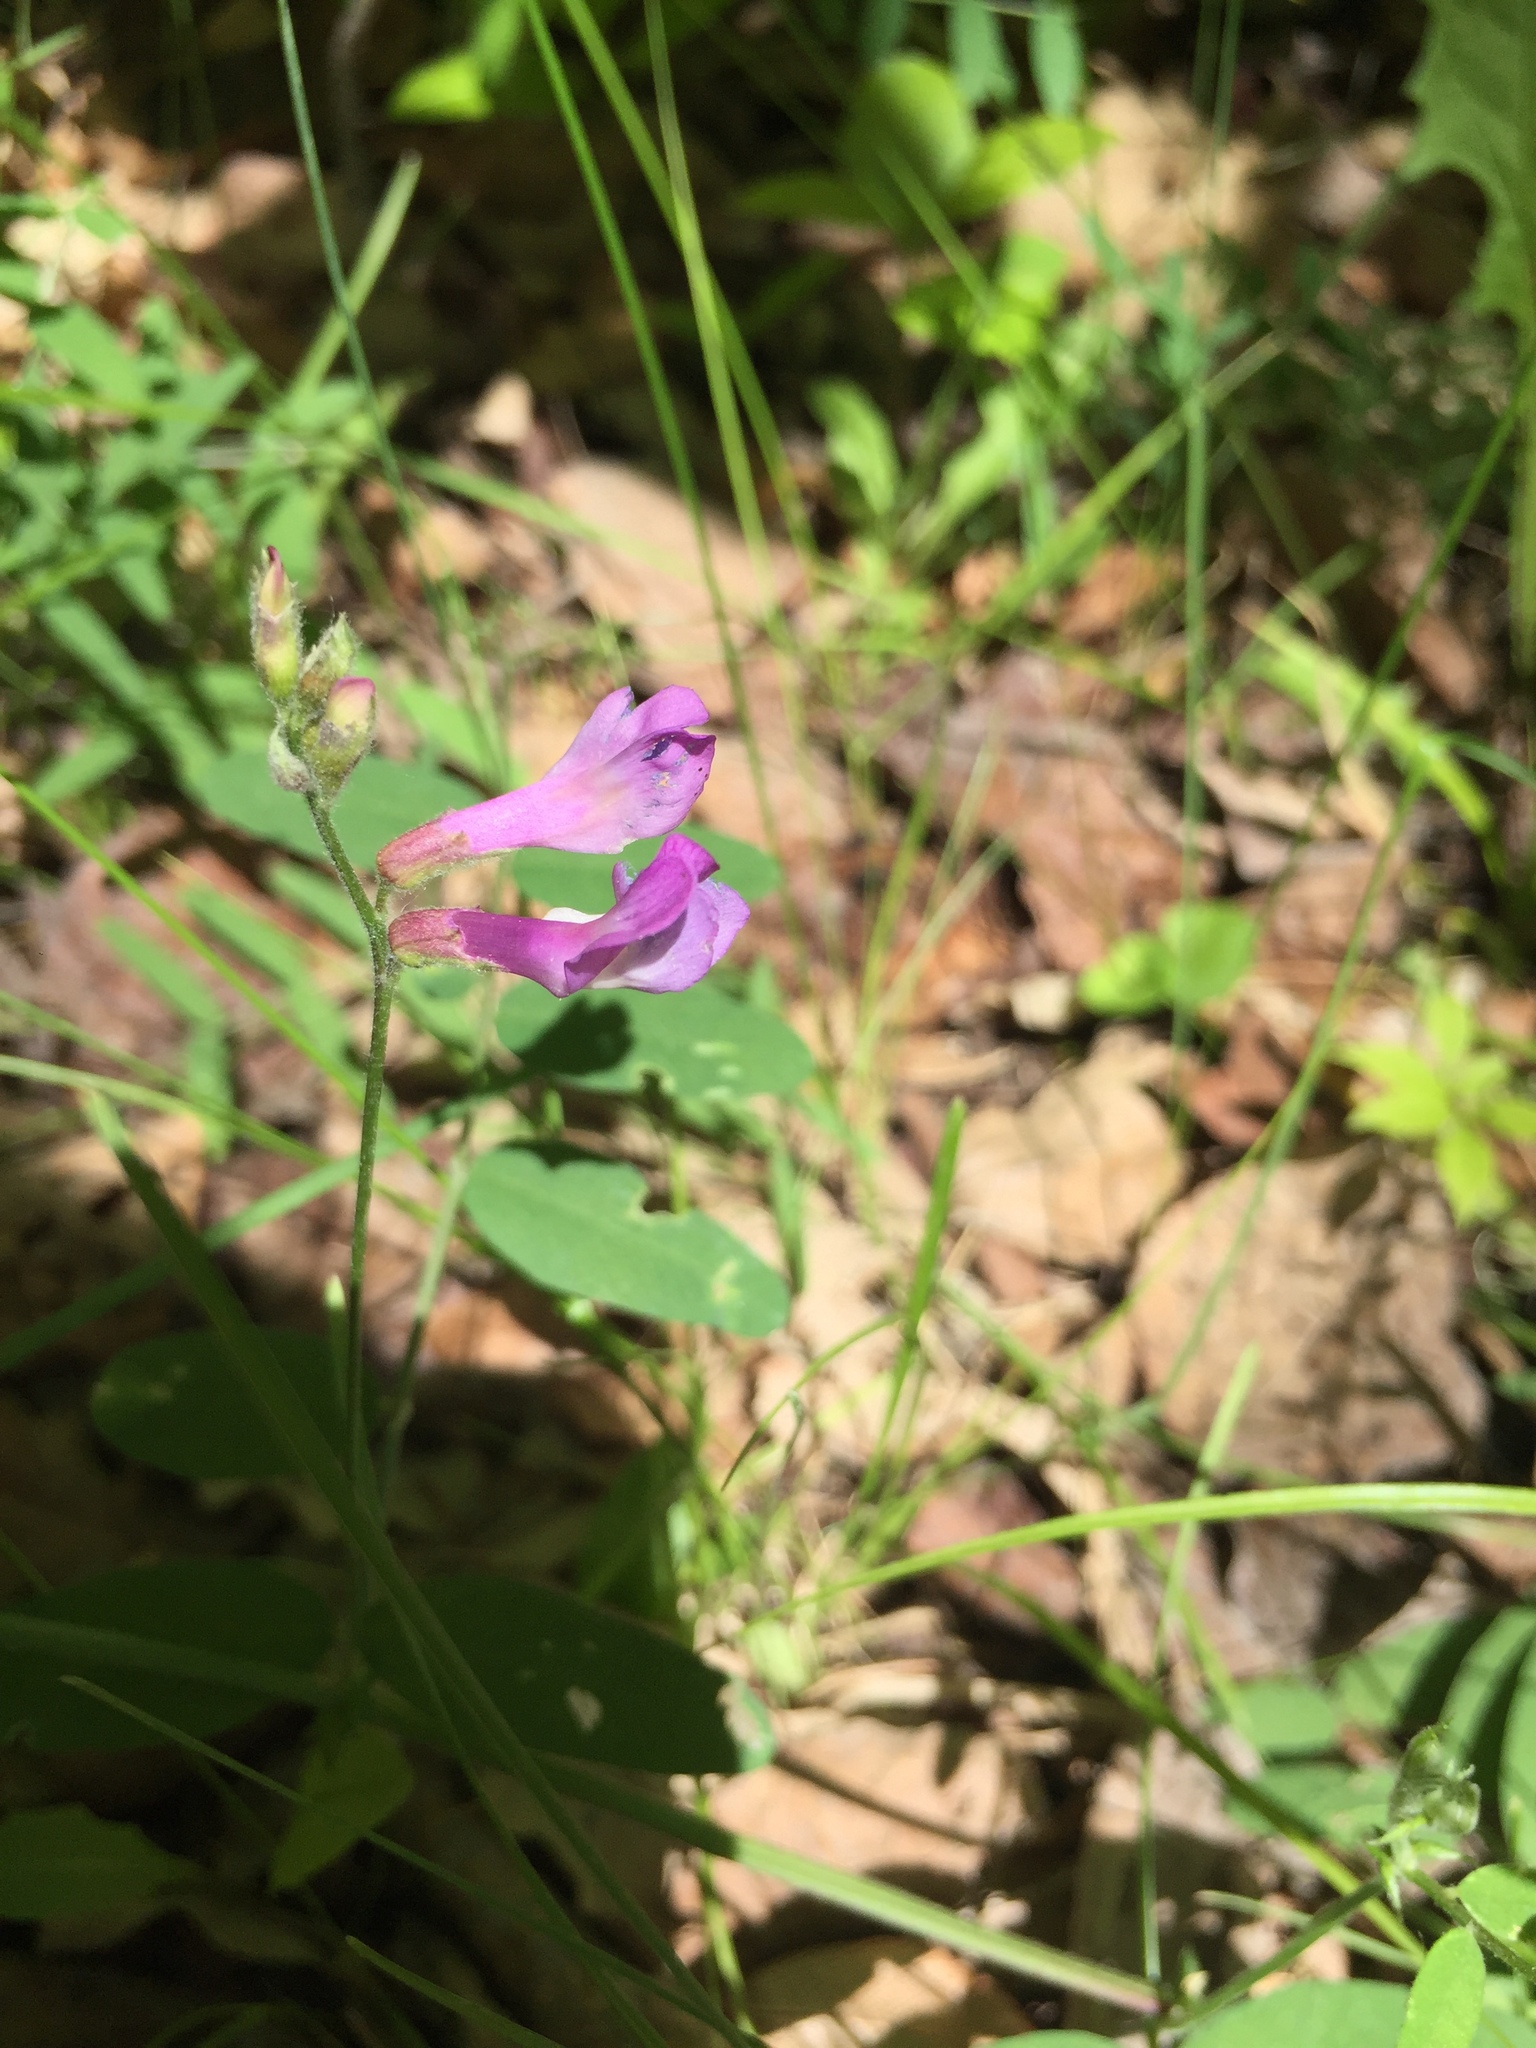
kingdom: Plantae
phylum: Tracheophyta
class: Magnoliopsida
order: Fabales
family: Fabaceae
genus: Vicia
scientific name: Vicia americana
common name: American vetch
